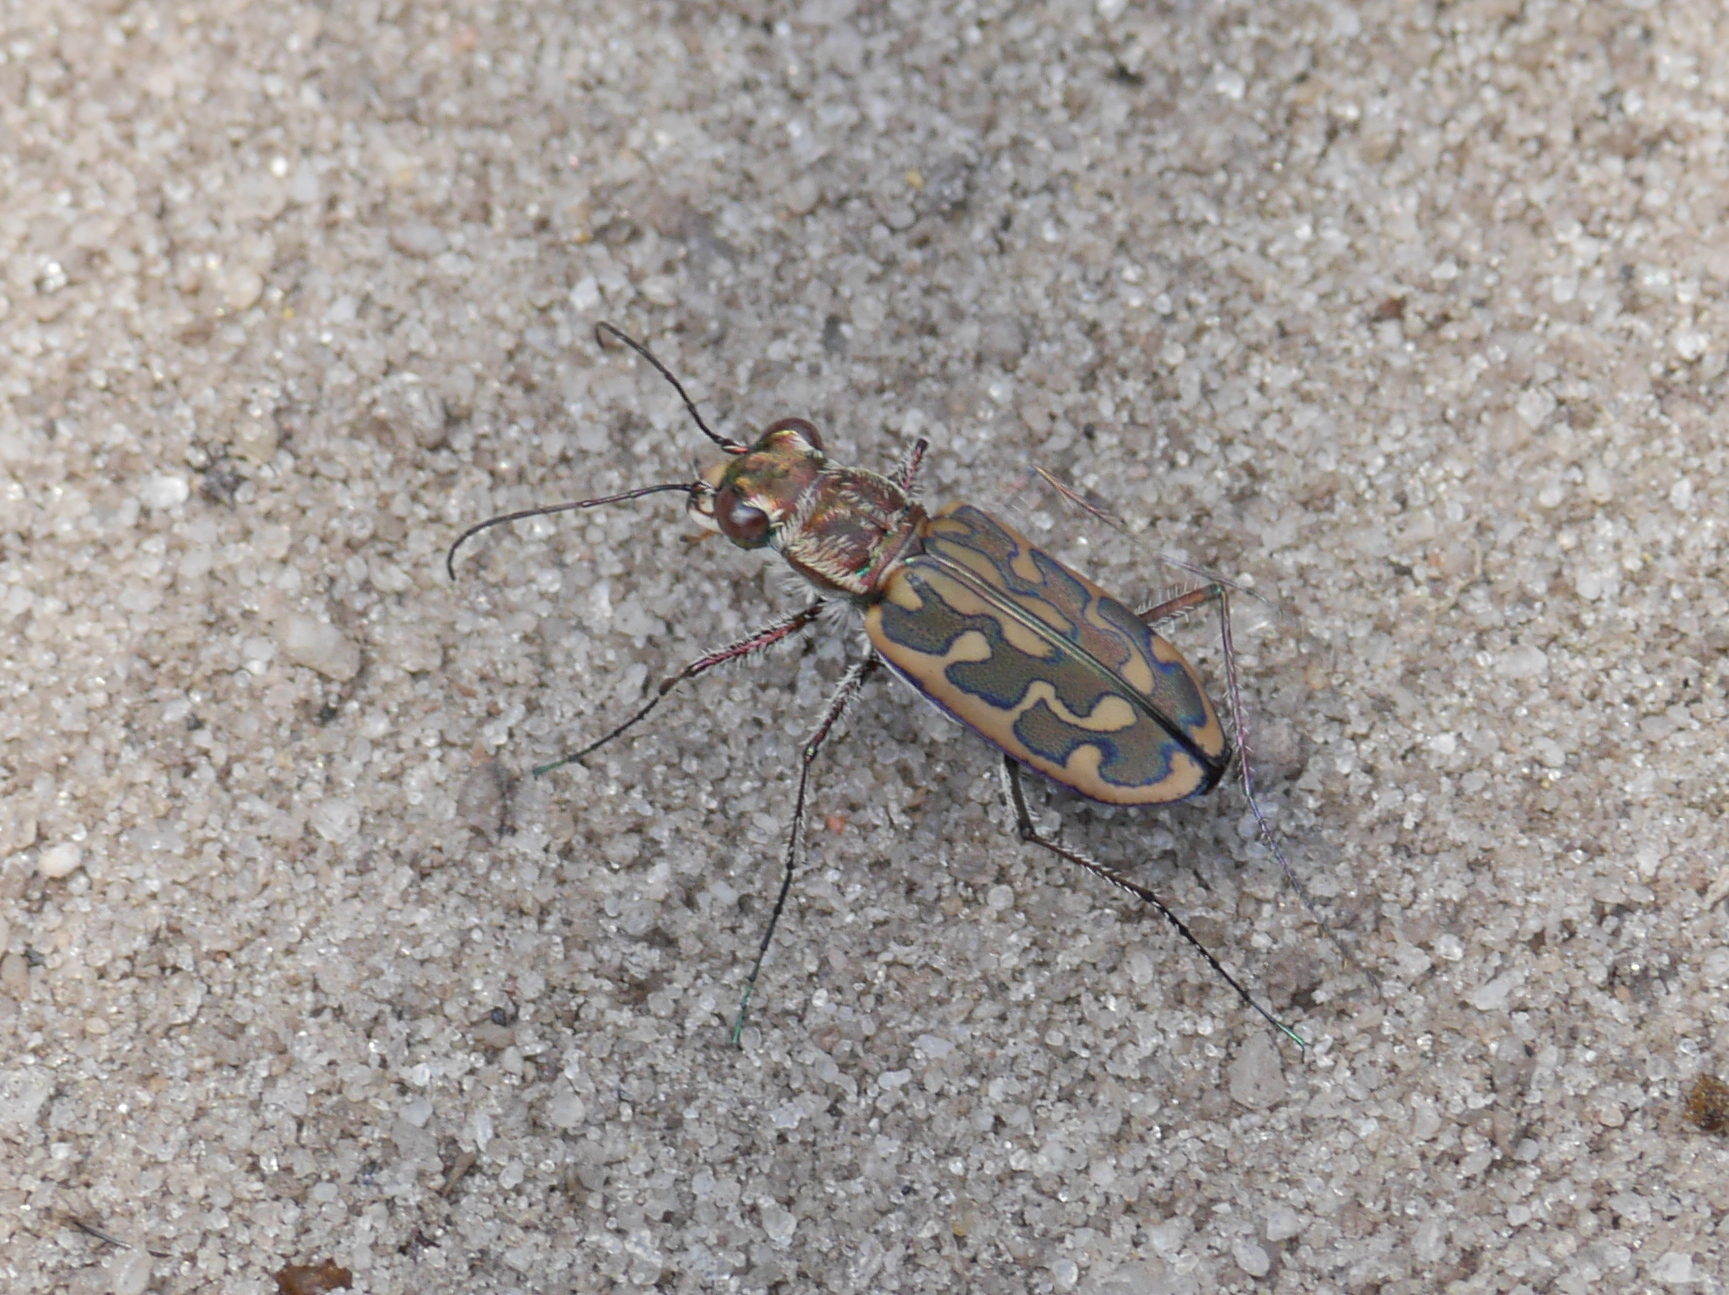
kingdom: Animalia
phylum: Arthropoda
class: Insecta
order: Coleoptera
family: Carabidae
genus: Lophyra
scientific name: Lophyra neglecta
